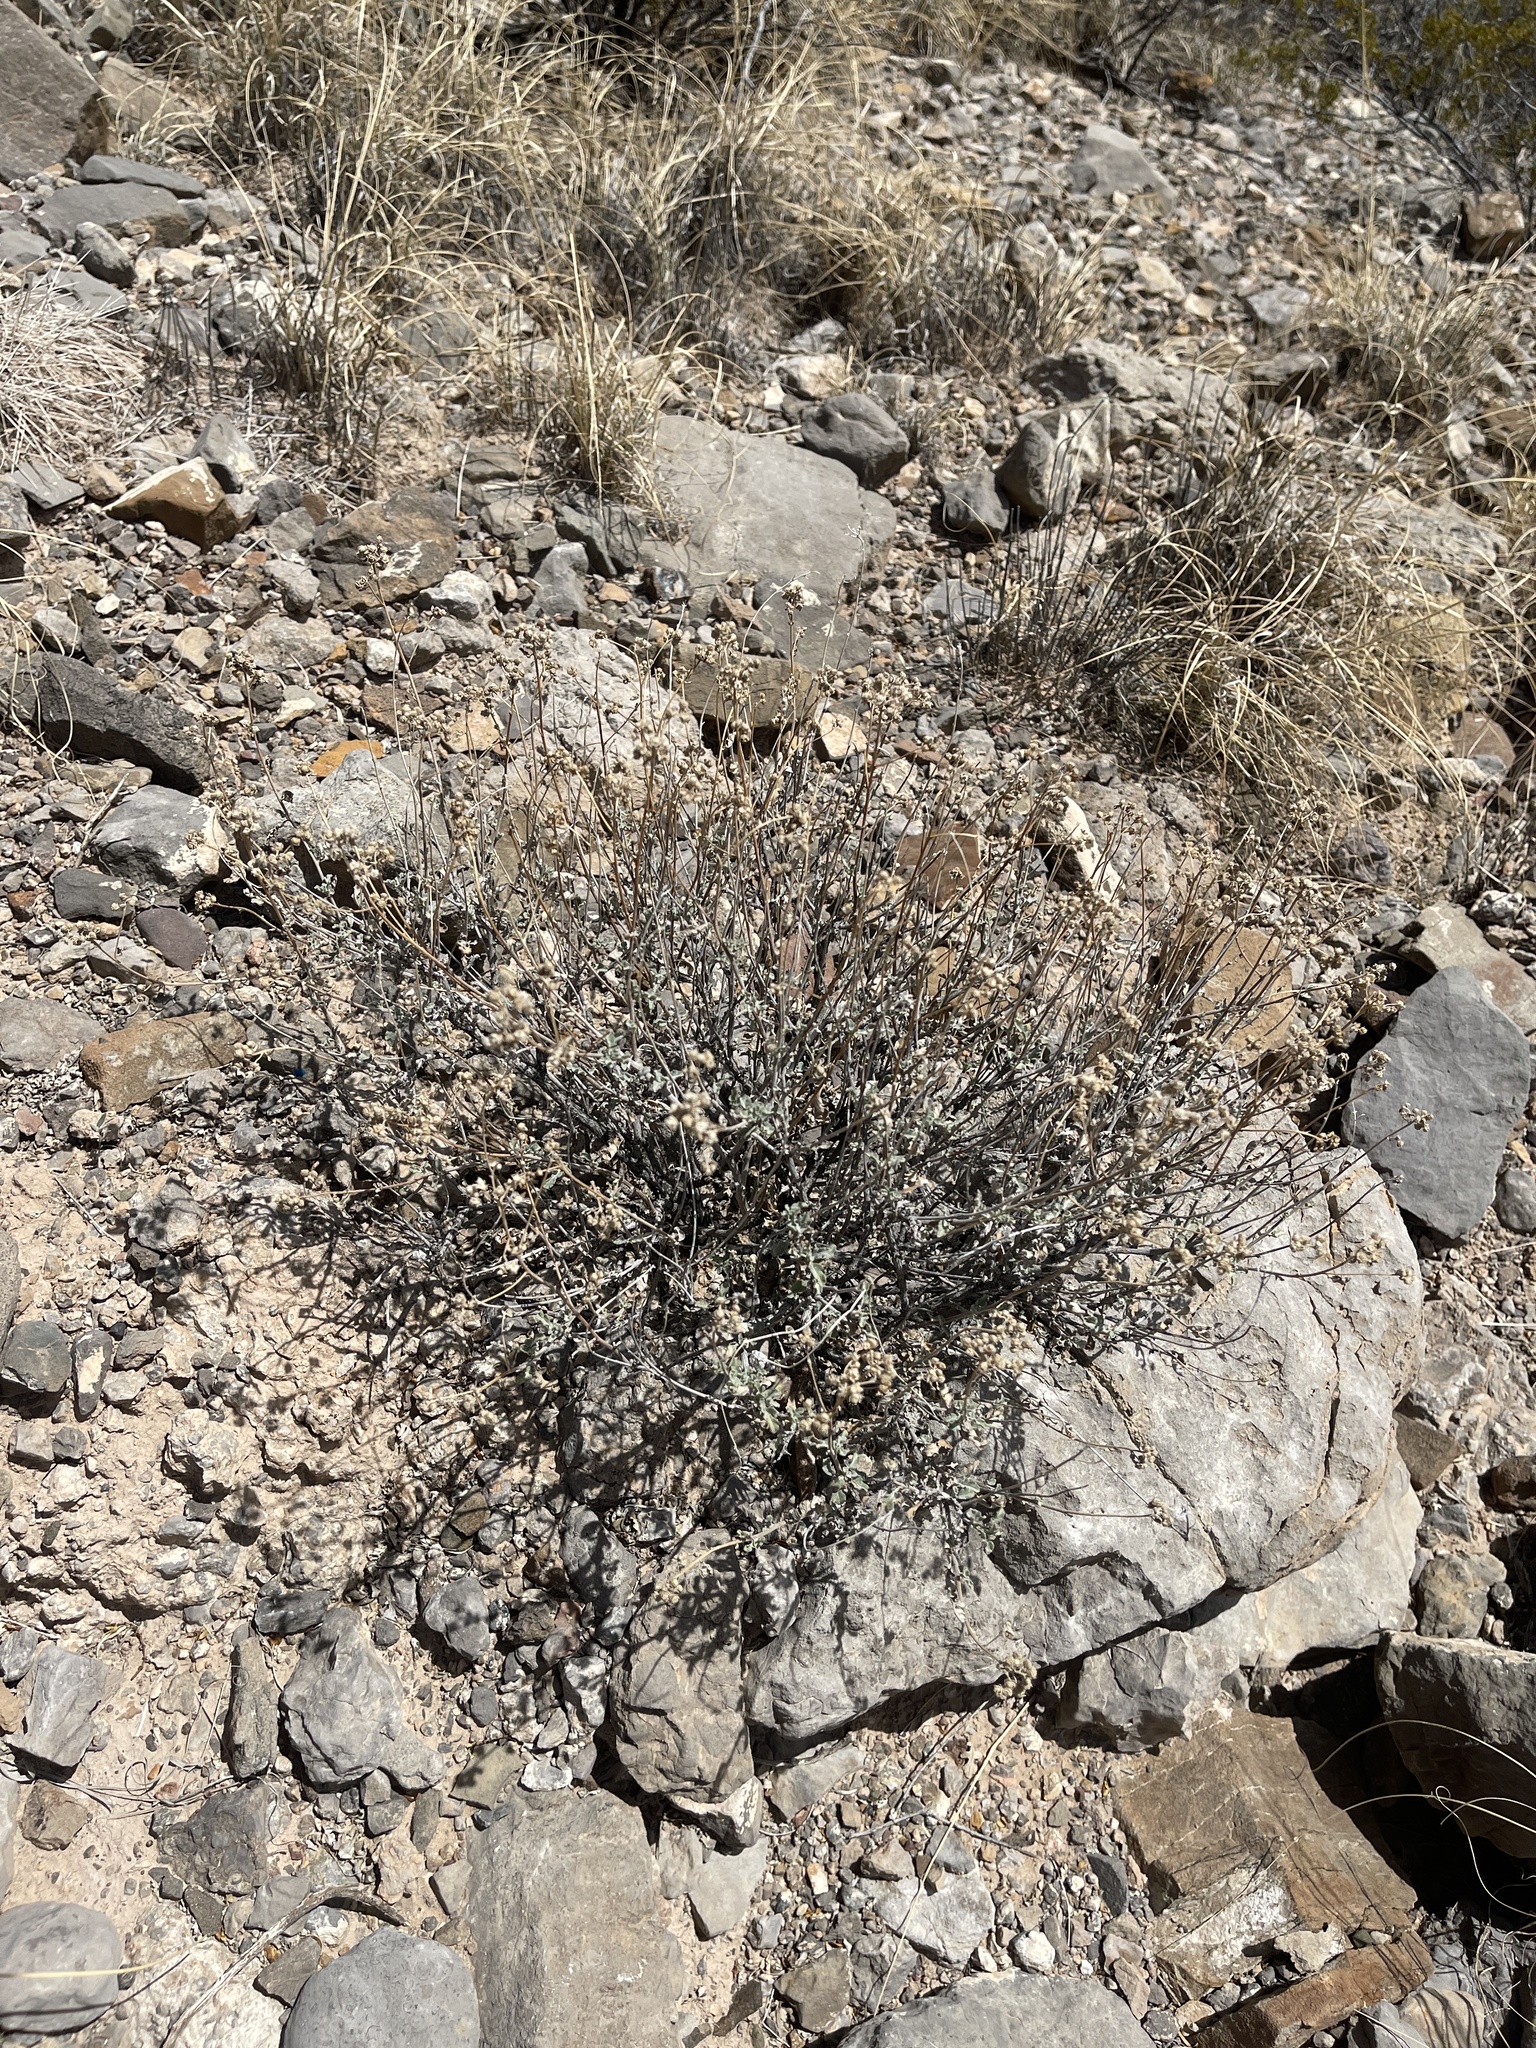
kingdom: Plantae
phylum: Tracheophyta
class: Magnoliopsida
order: Asterales
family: Asteraceae
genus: Parthenium
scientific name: Parthenium incanum
